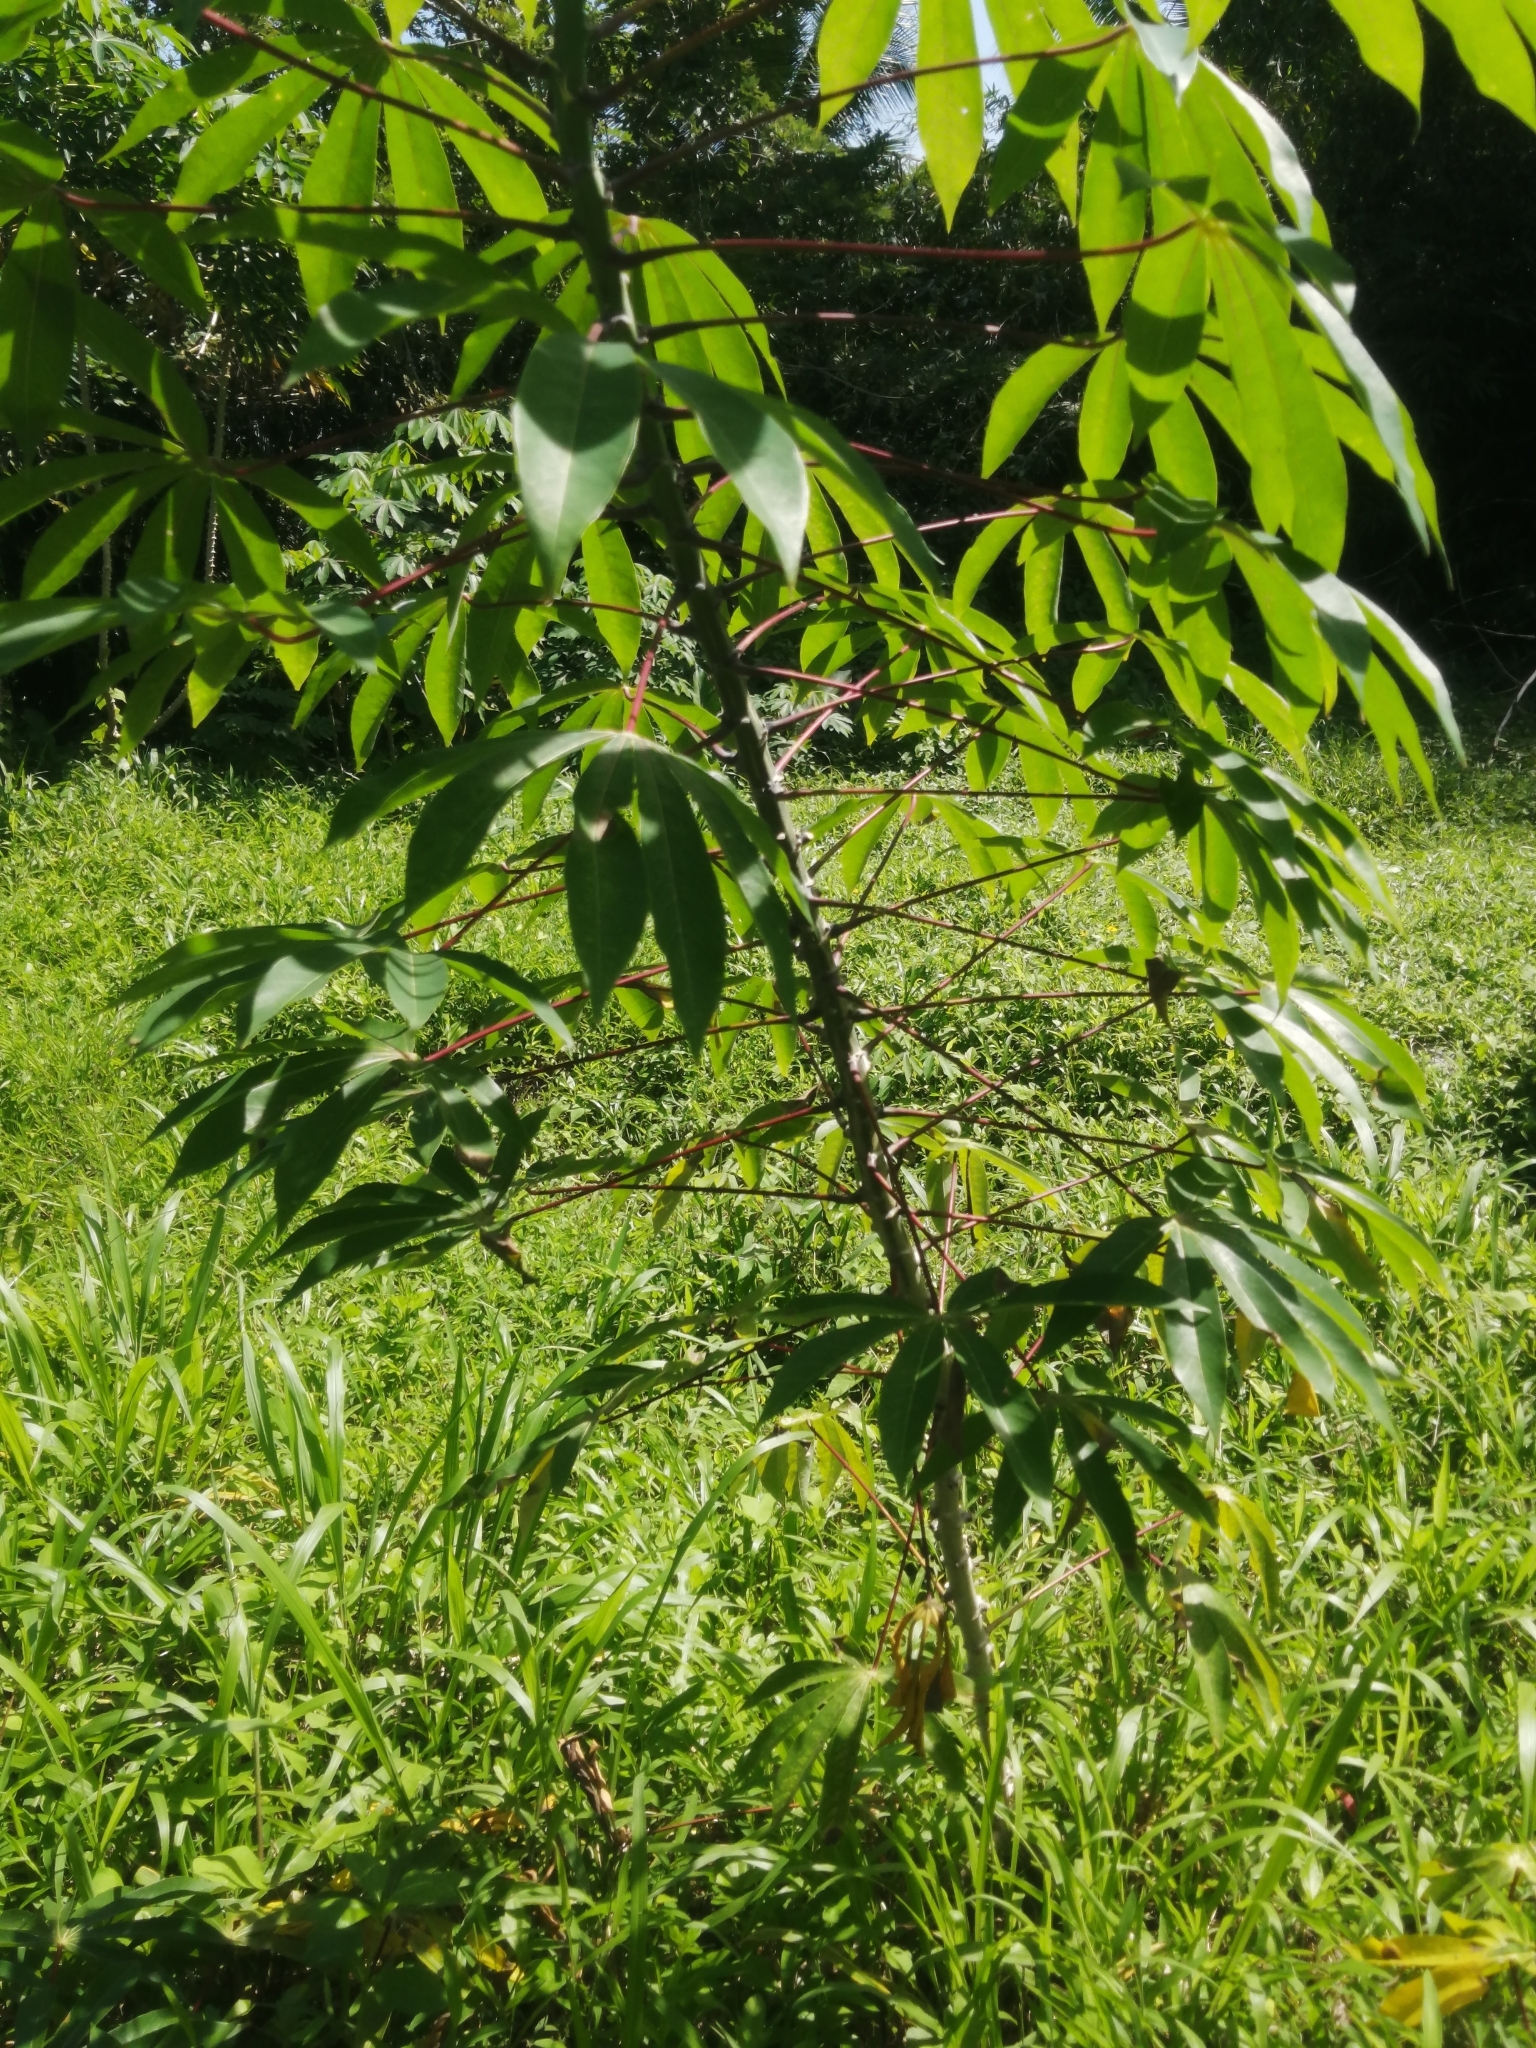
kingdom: Plantae
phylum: Tracheophyta
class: Magnoliopsida
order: Malpighiales
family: Euphorbiaceae
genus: Manihot
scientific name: Manihot esculenta
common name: Cassava
